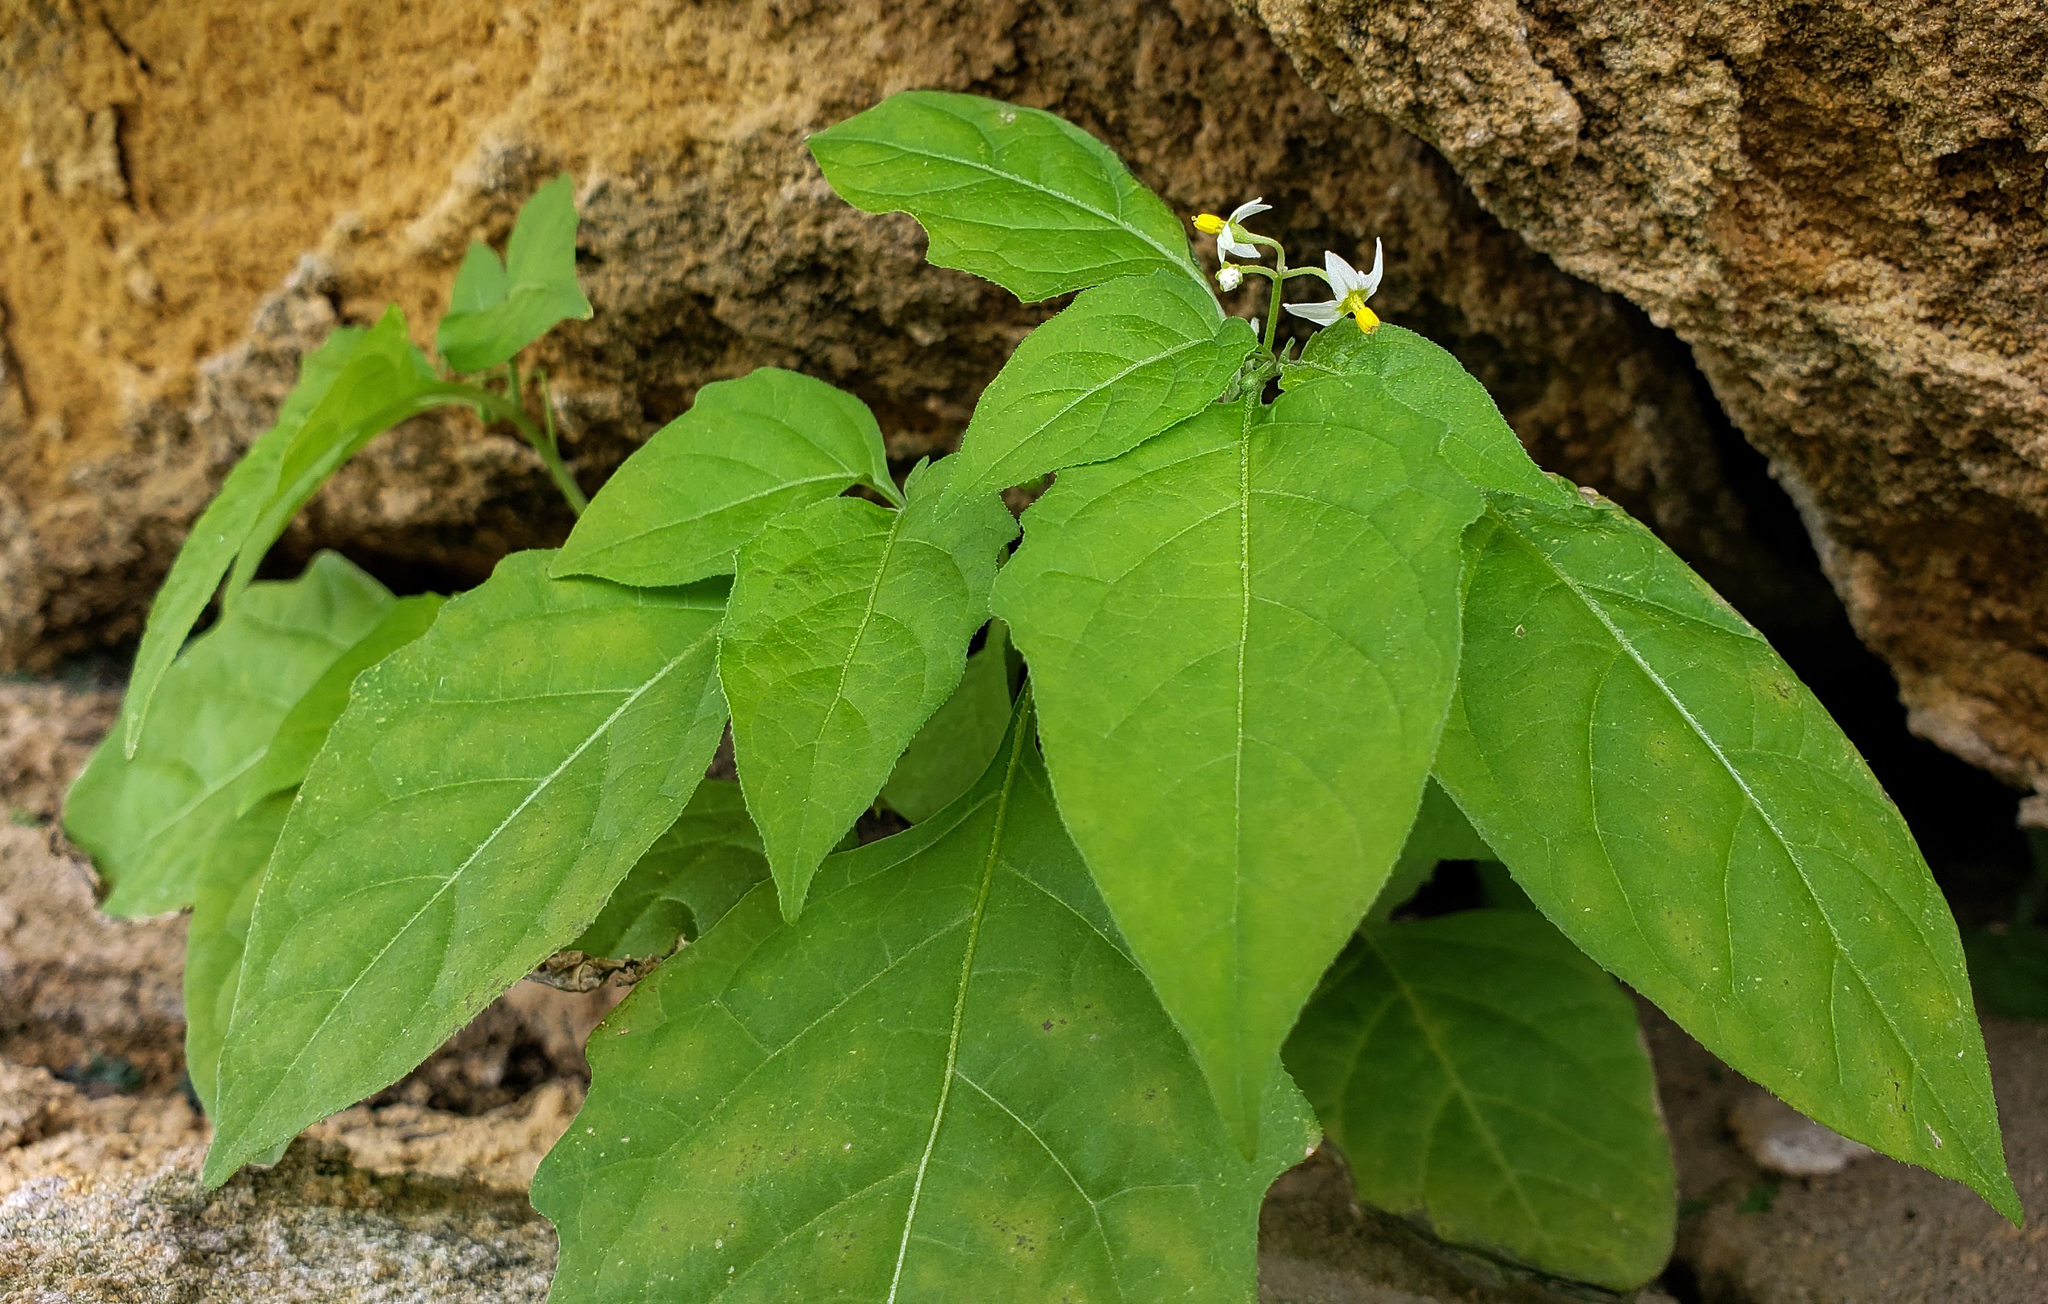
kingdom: Plantae
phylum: Tracheophyta
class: Magnoliopsida
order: Solanales
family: Solanaceae
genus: Solanum
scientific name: Solanum emulans
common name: Eastern black nightshade
